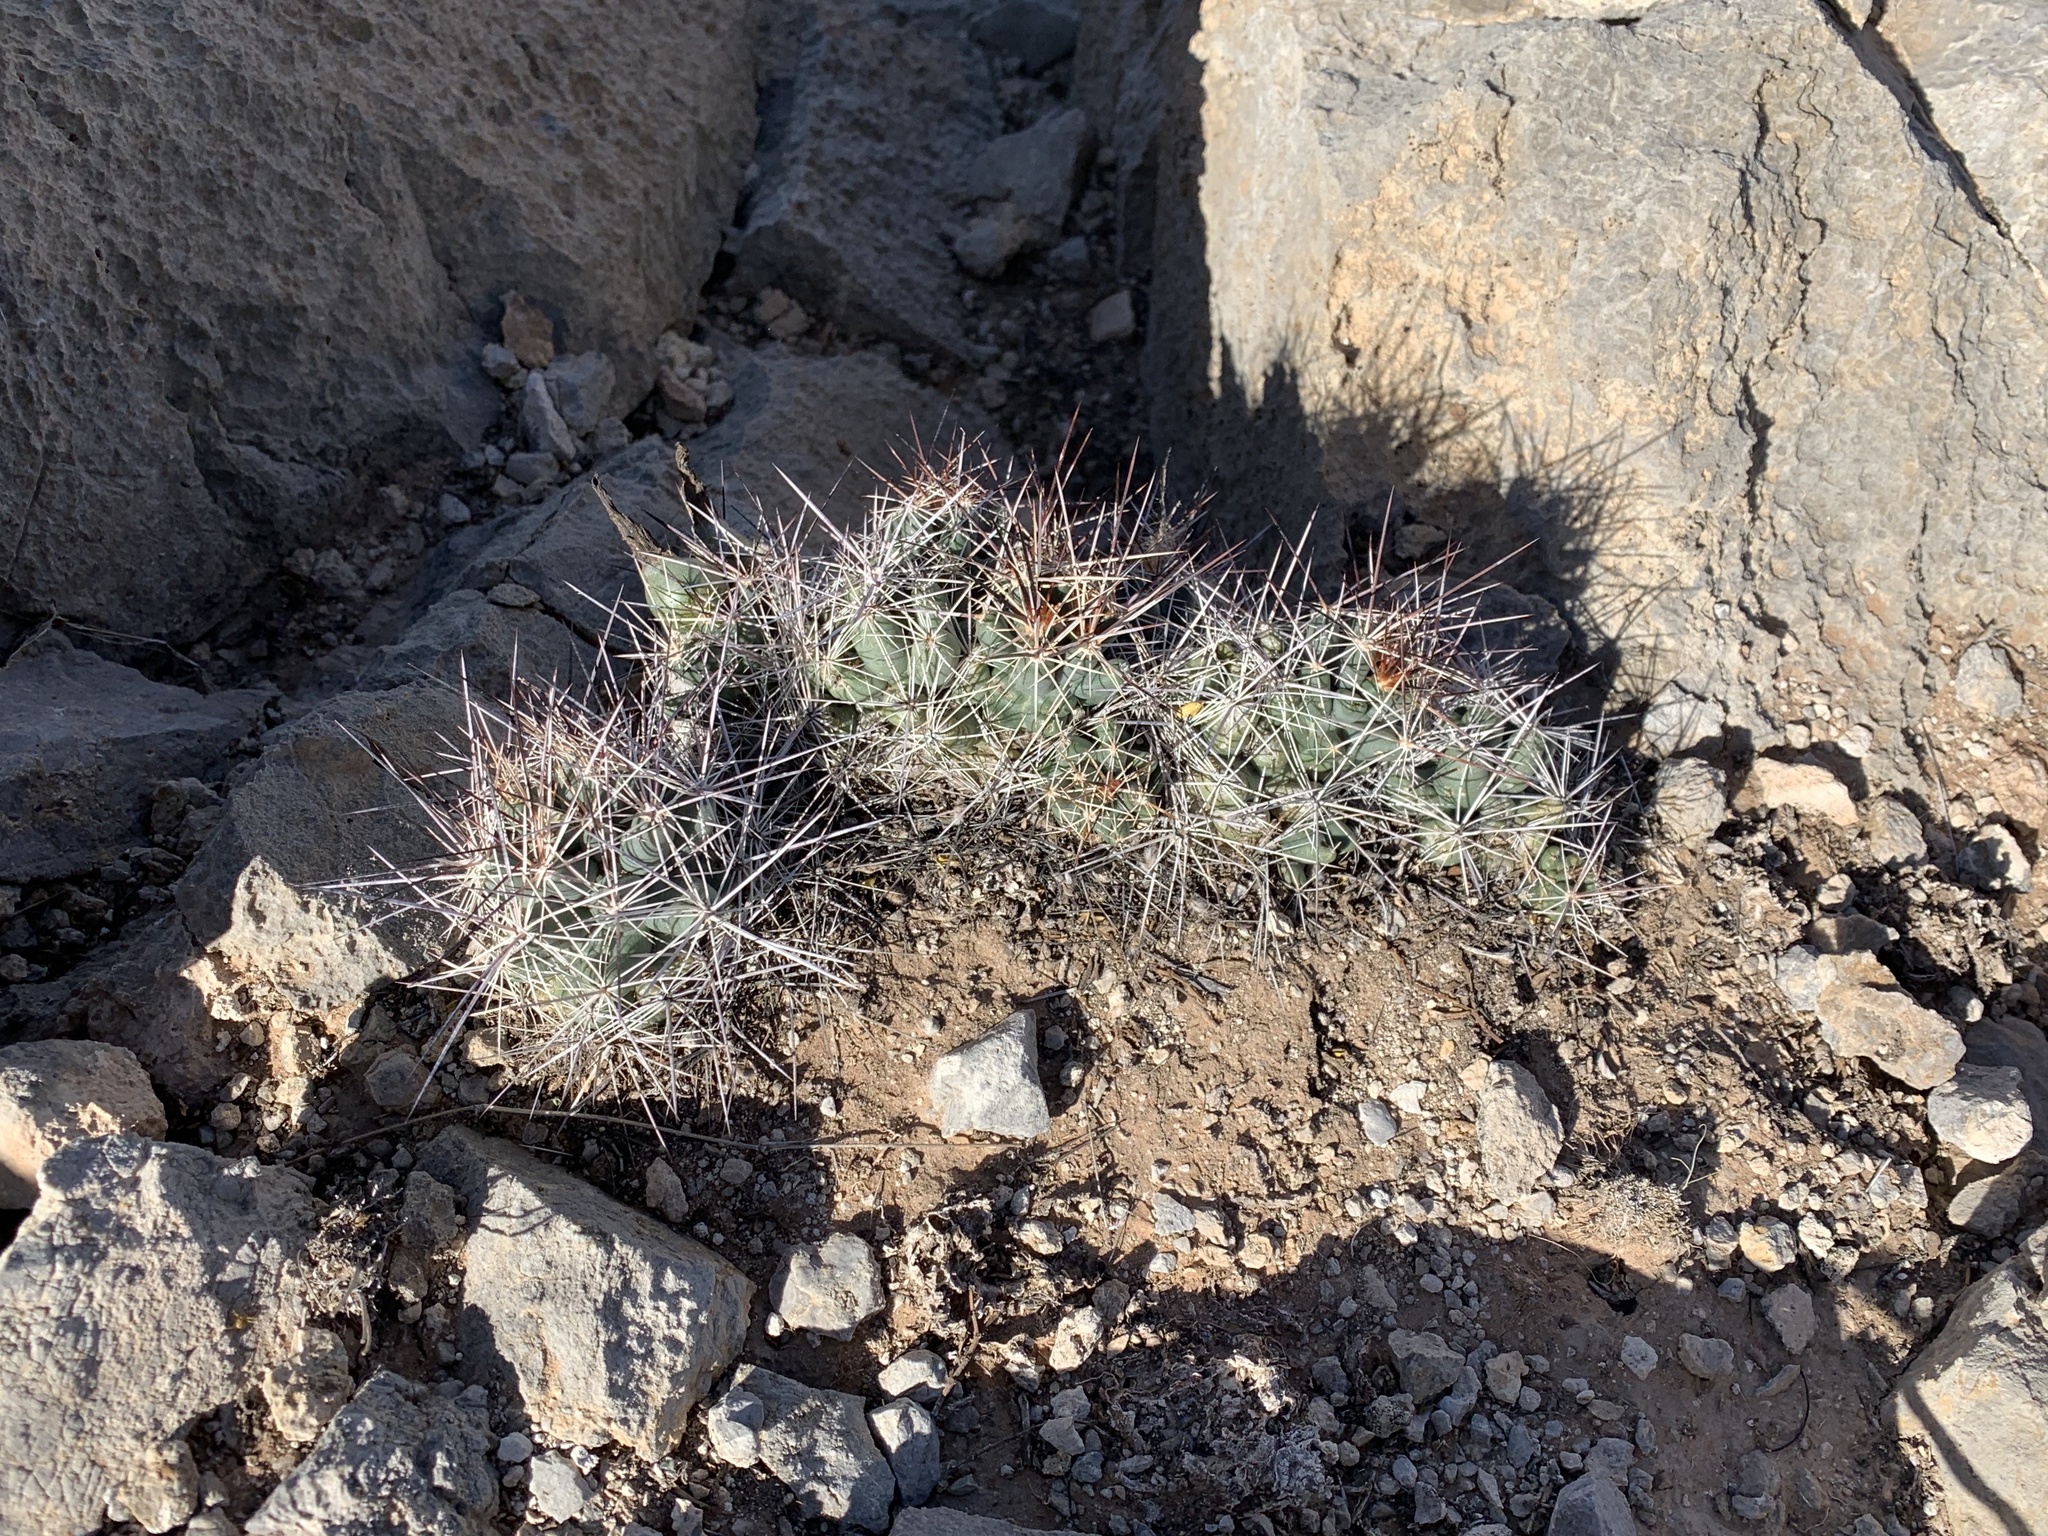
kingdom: Plantae
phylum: Tracheophyta
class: Magnoliopsida
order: Caryophyllales
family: Cactaceae
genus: Coryphantha
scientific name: Coryphantha macromeris
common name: Nipple beehive cactus
